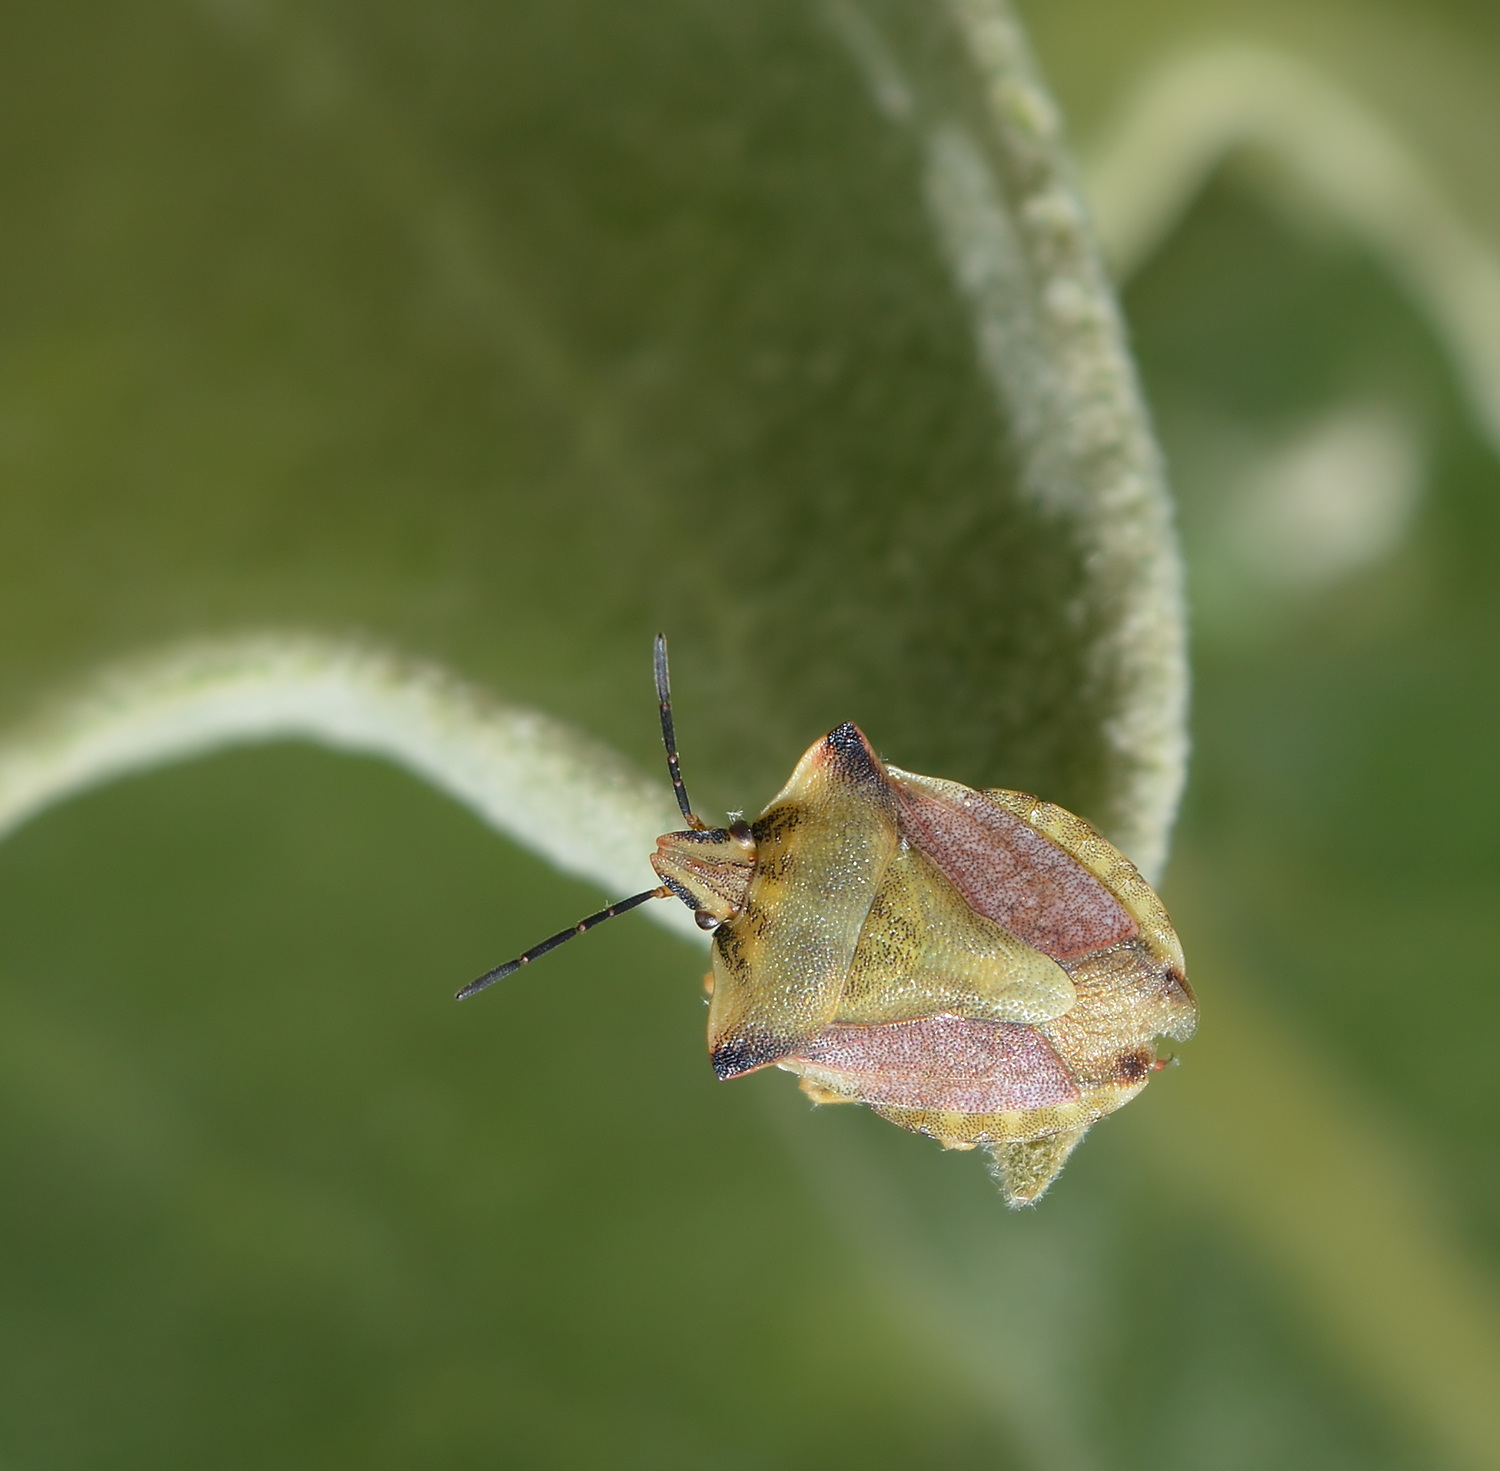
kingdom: Animalia
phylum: Arthropoda
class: Insecta
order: Hemiptera
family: Pentatomidae
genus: Carpocoris
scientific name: Carpocoris fuscispinus
